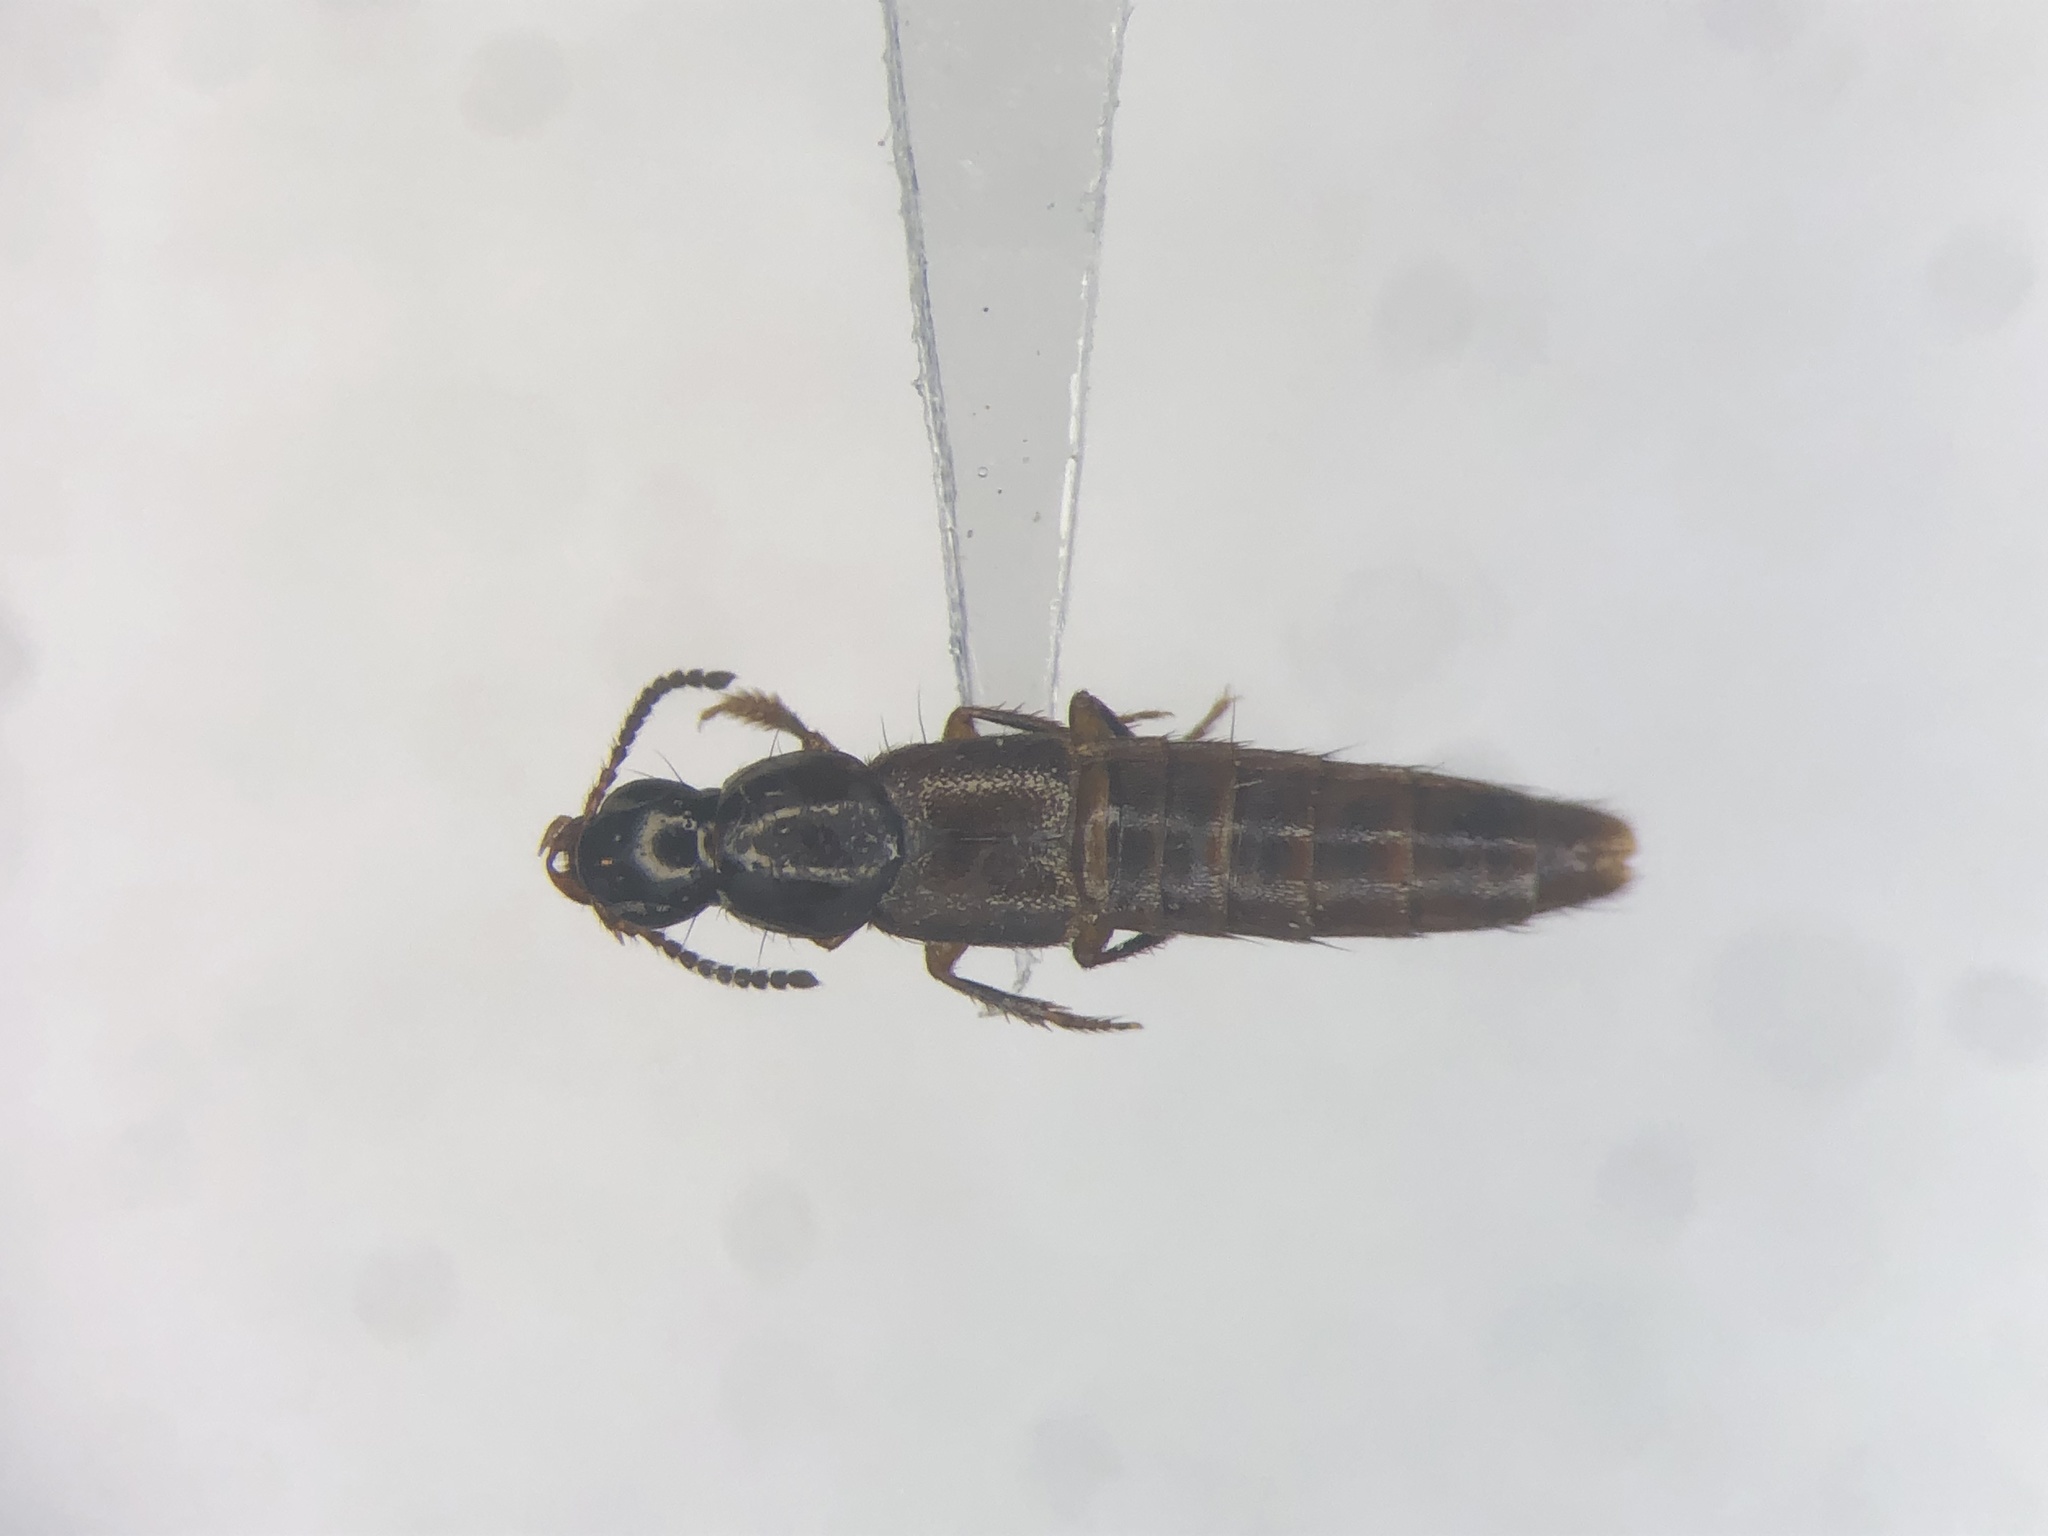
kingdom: Animalia
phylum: Arthropoda
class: Insecta
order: Coleoptera
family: Staphylinidae
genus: Quedius
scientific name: Quedius rusticus
